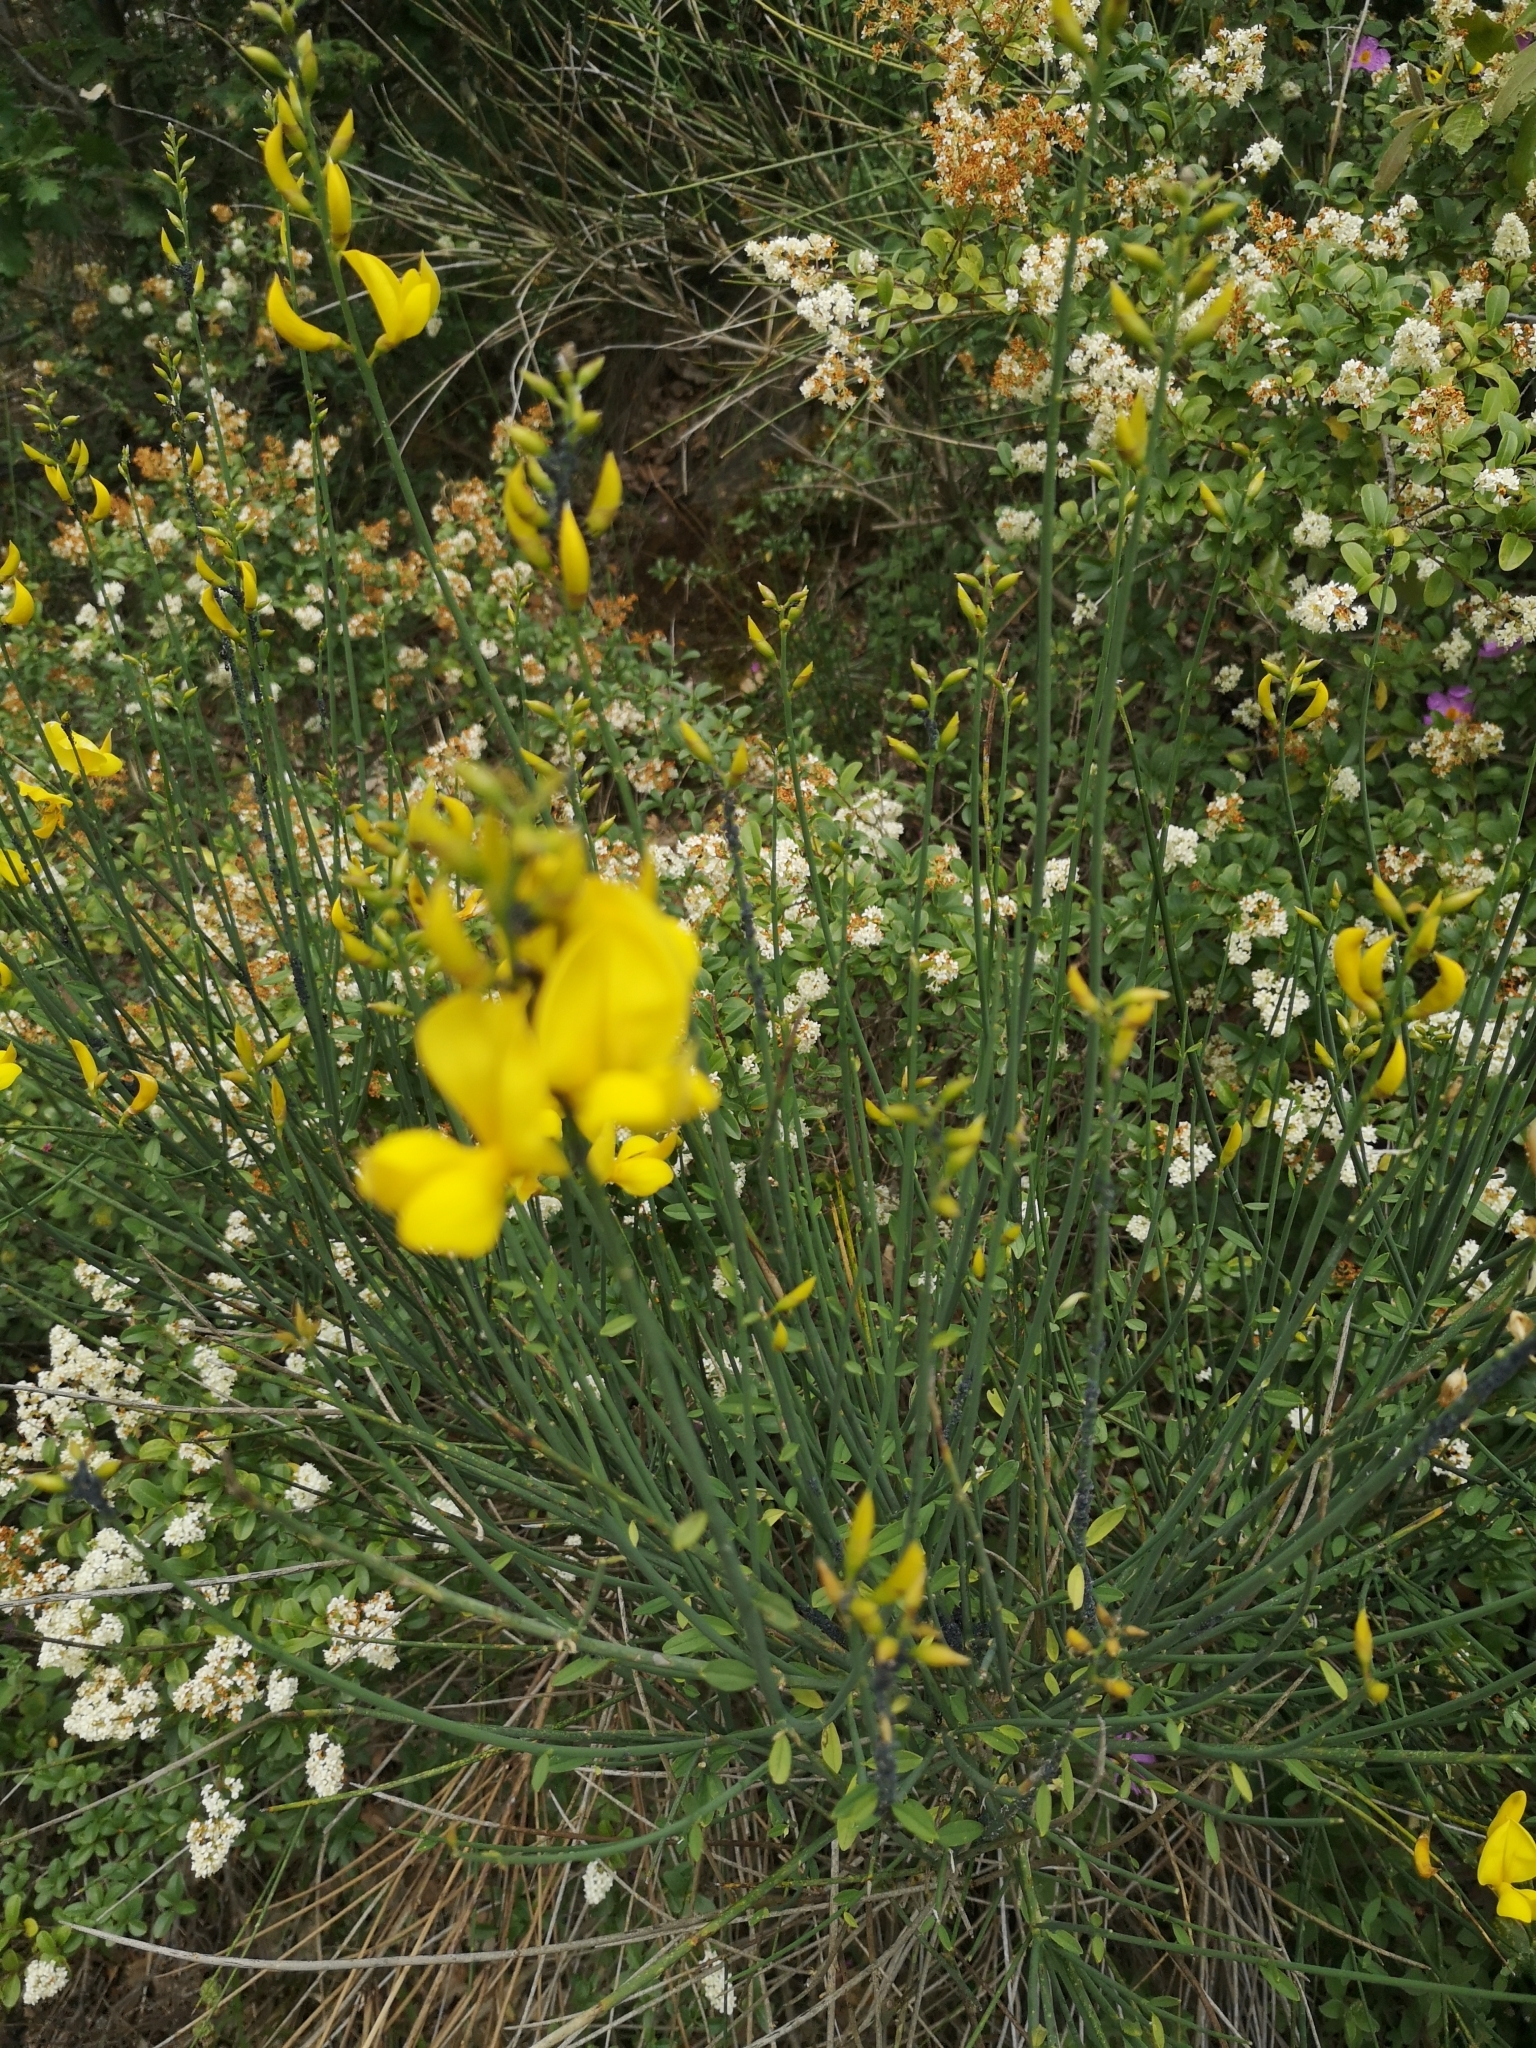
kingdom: Plantae
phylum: Tracheophyta
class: Magnoliopsida
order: Fabales
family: Fabaceae
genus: Spartium
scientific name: Spartium junceum
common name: Spanish broom
